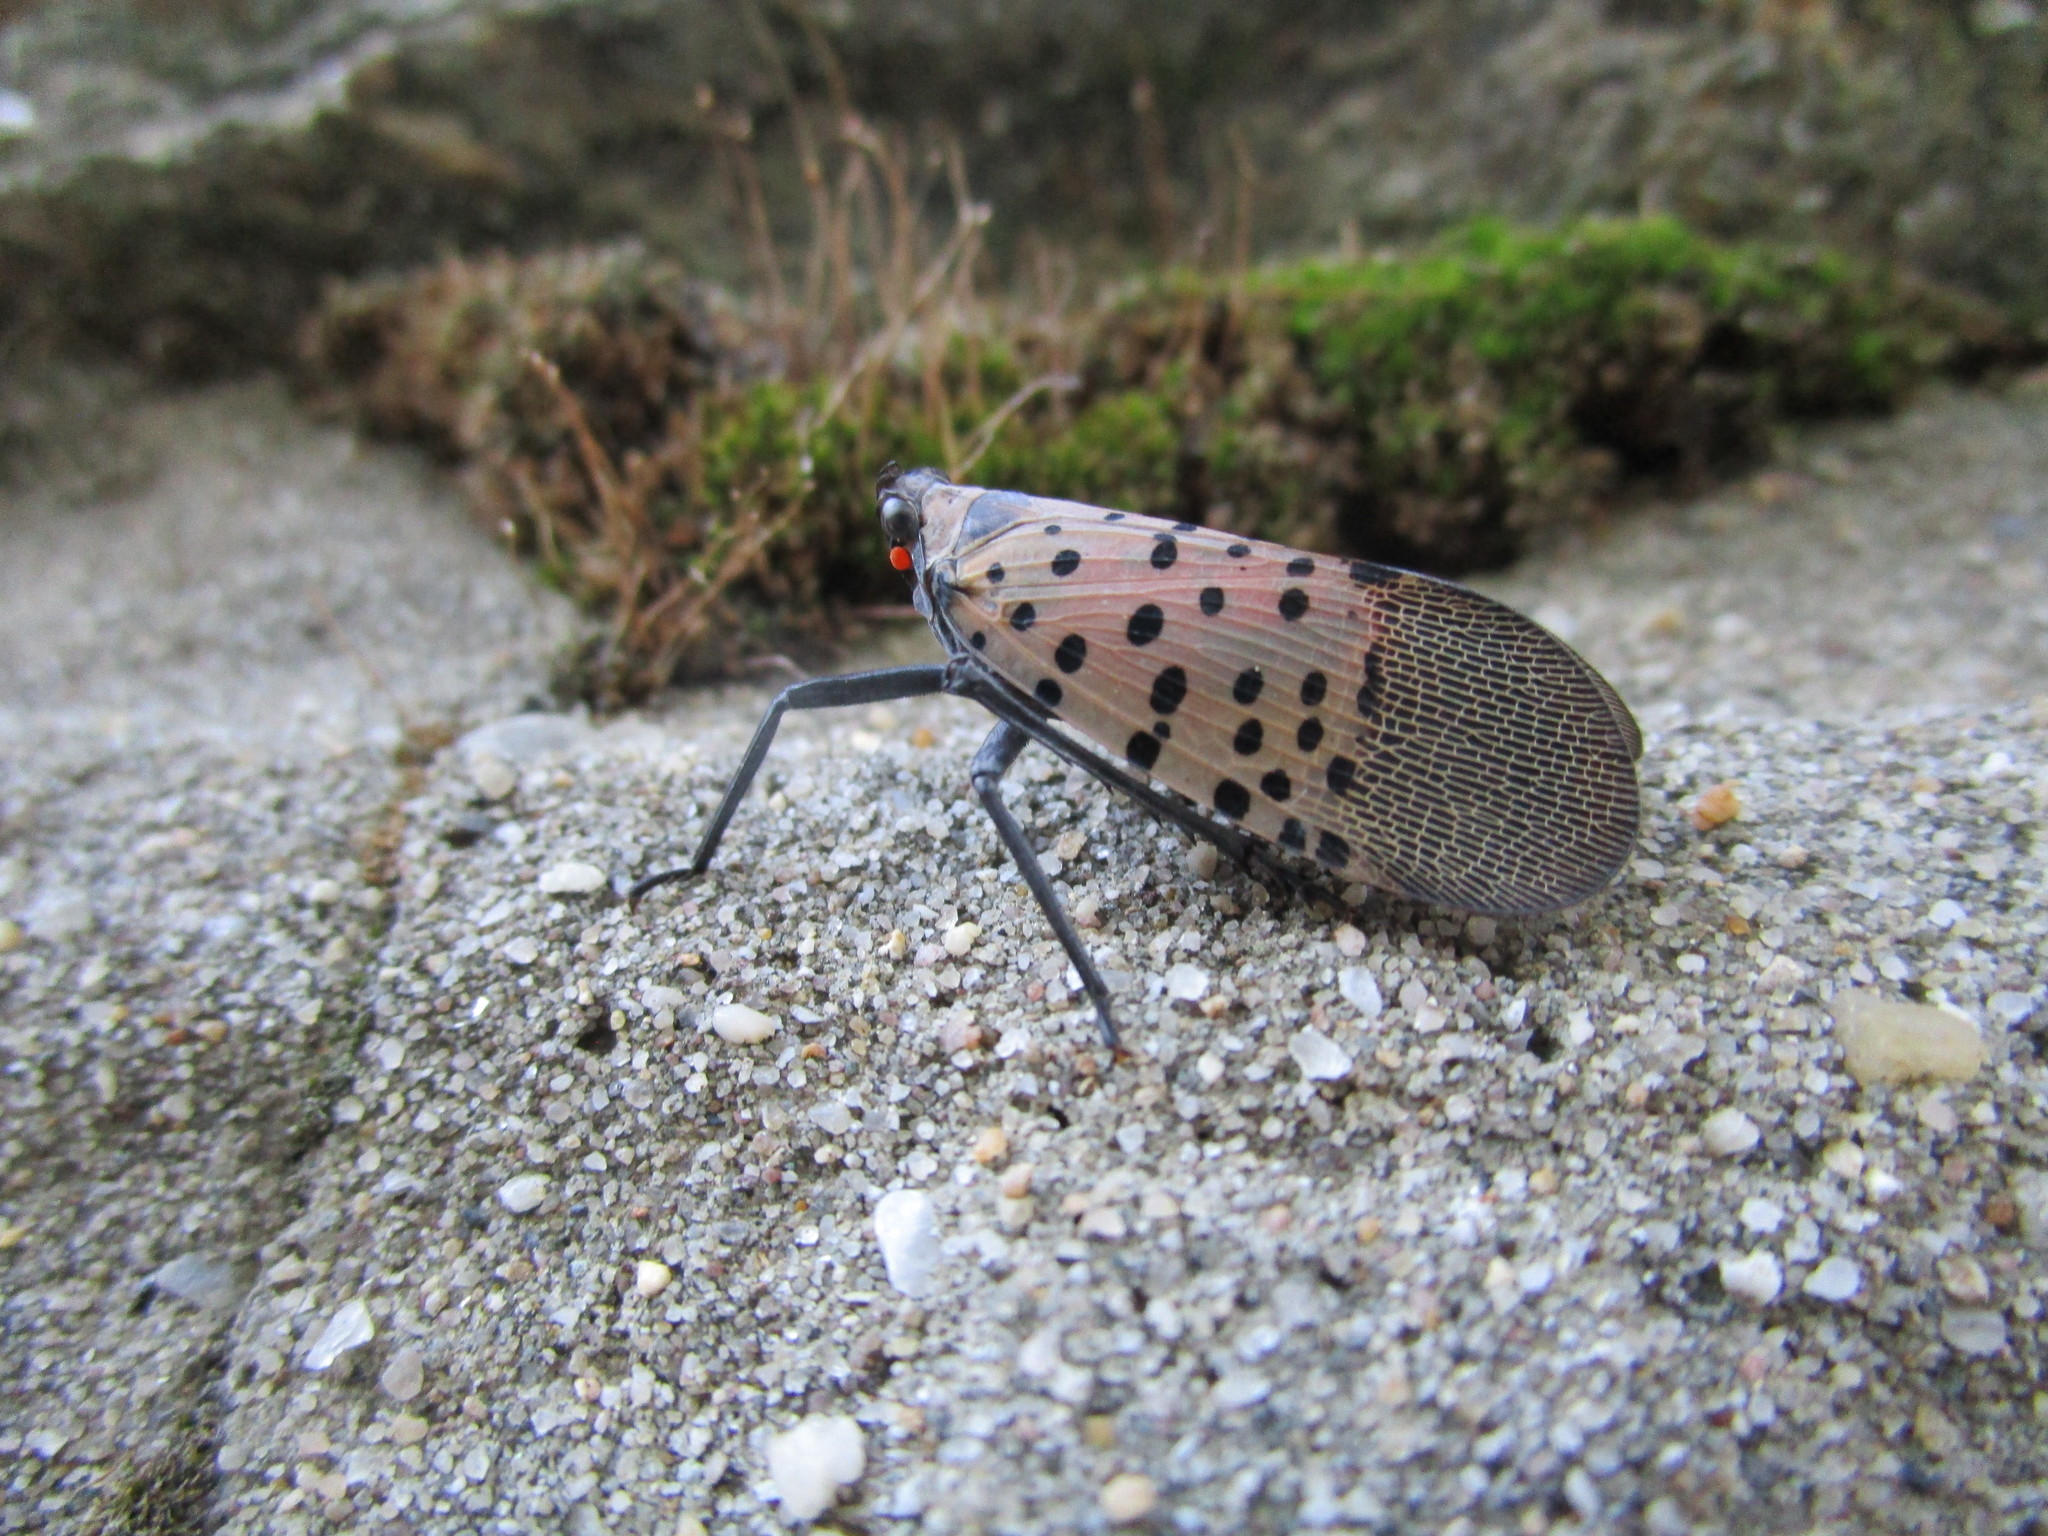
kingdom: Animalia
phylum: Arthropoda
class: Insecta
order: Hemiptera
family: Fulgoridae
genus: Lycorma
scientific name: Lycorma delicatula
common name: Spotted lanternfly
